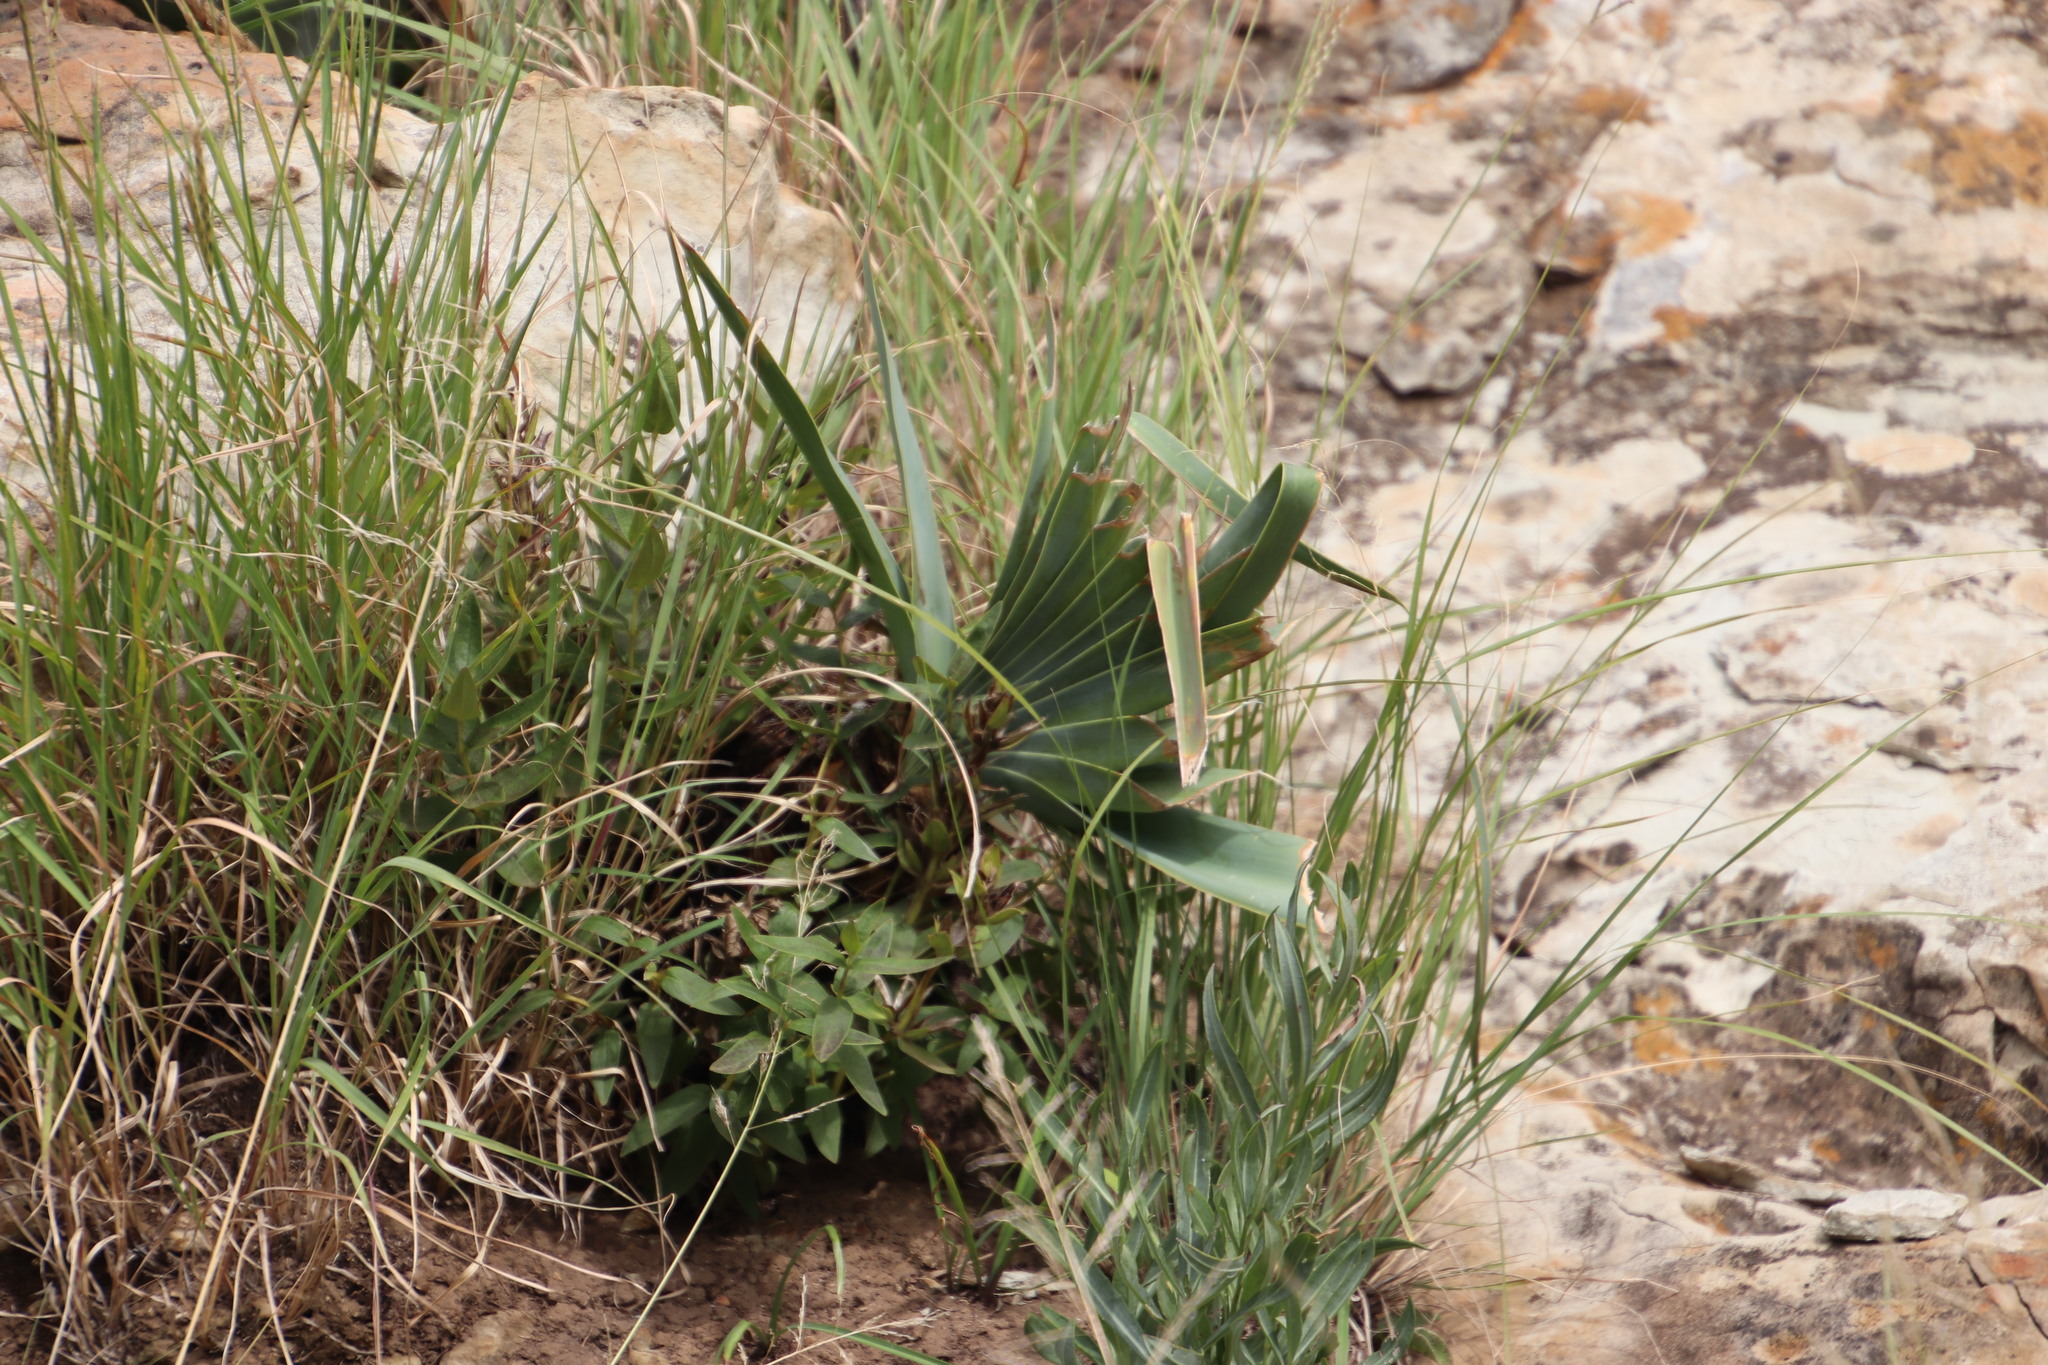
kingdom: Plantae
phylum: Tracheophyta
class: Liliopsida
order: Asparagales
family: Amaryllidaceae
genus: Boophone
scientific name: Boophone disticha
